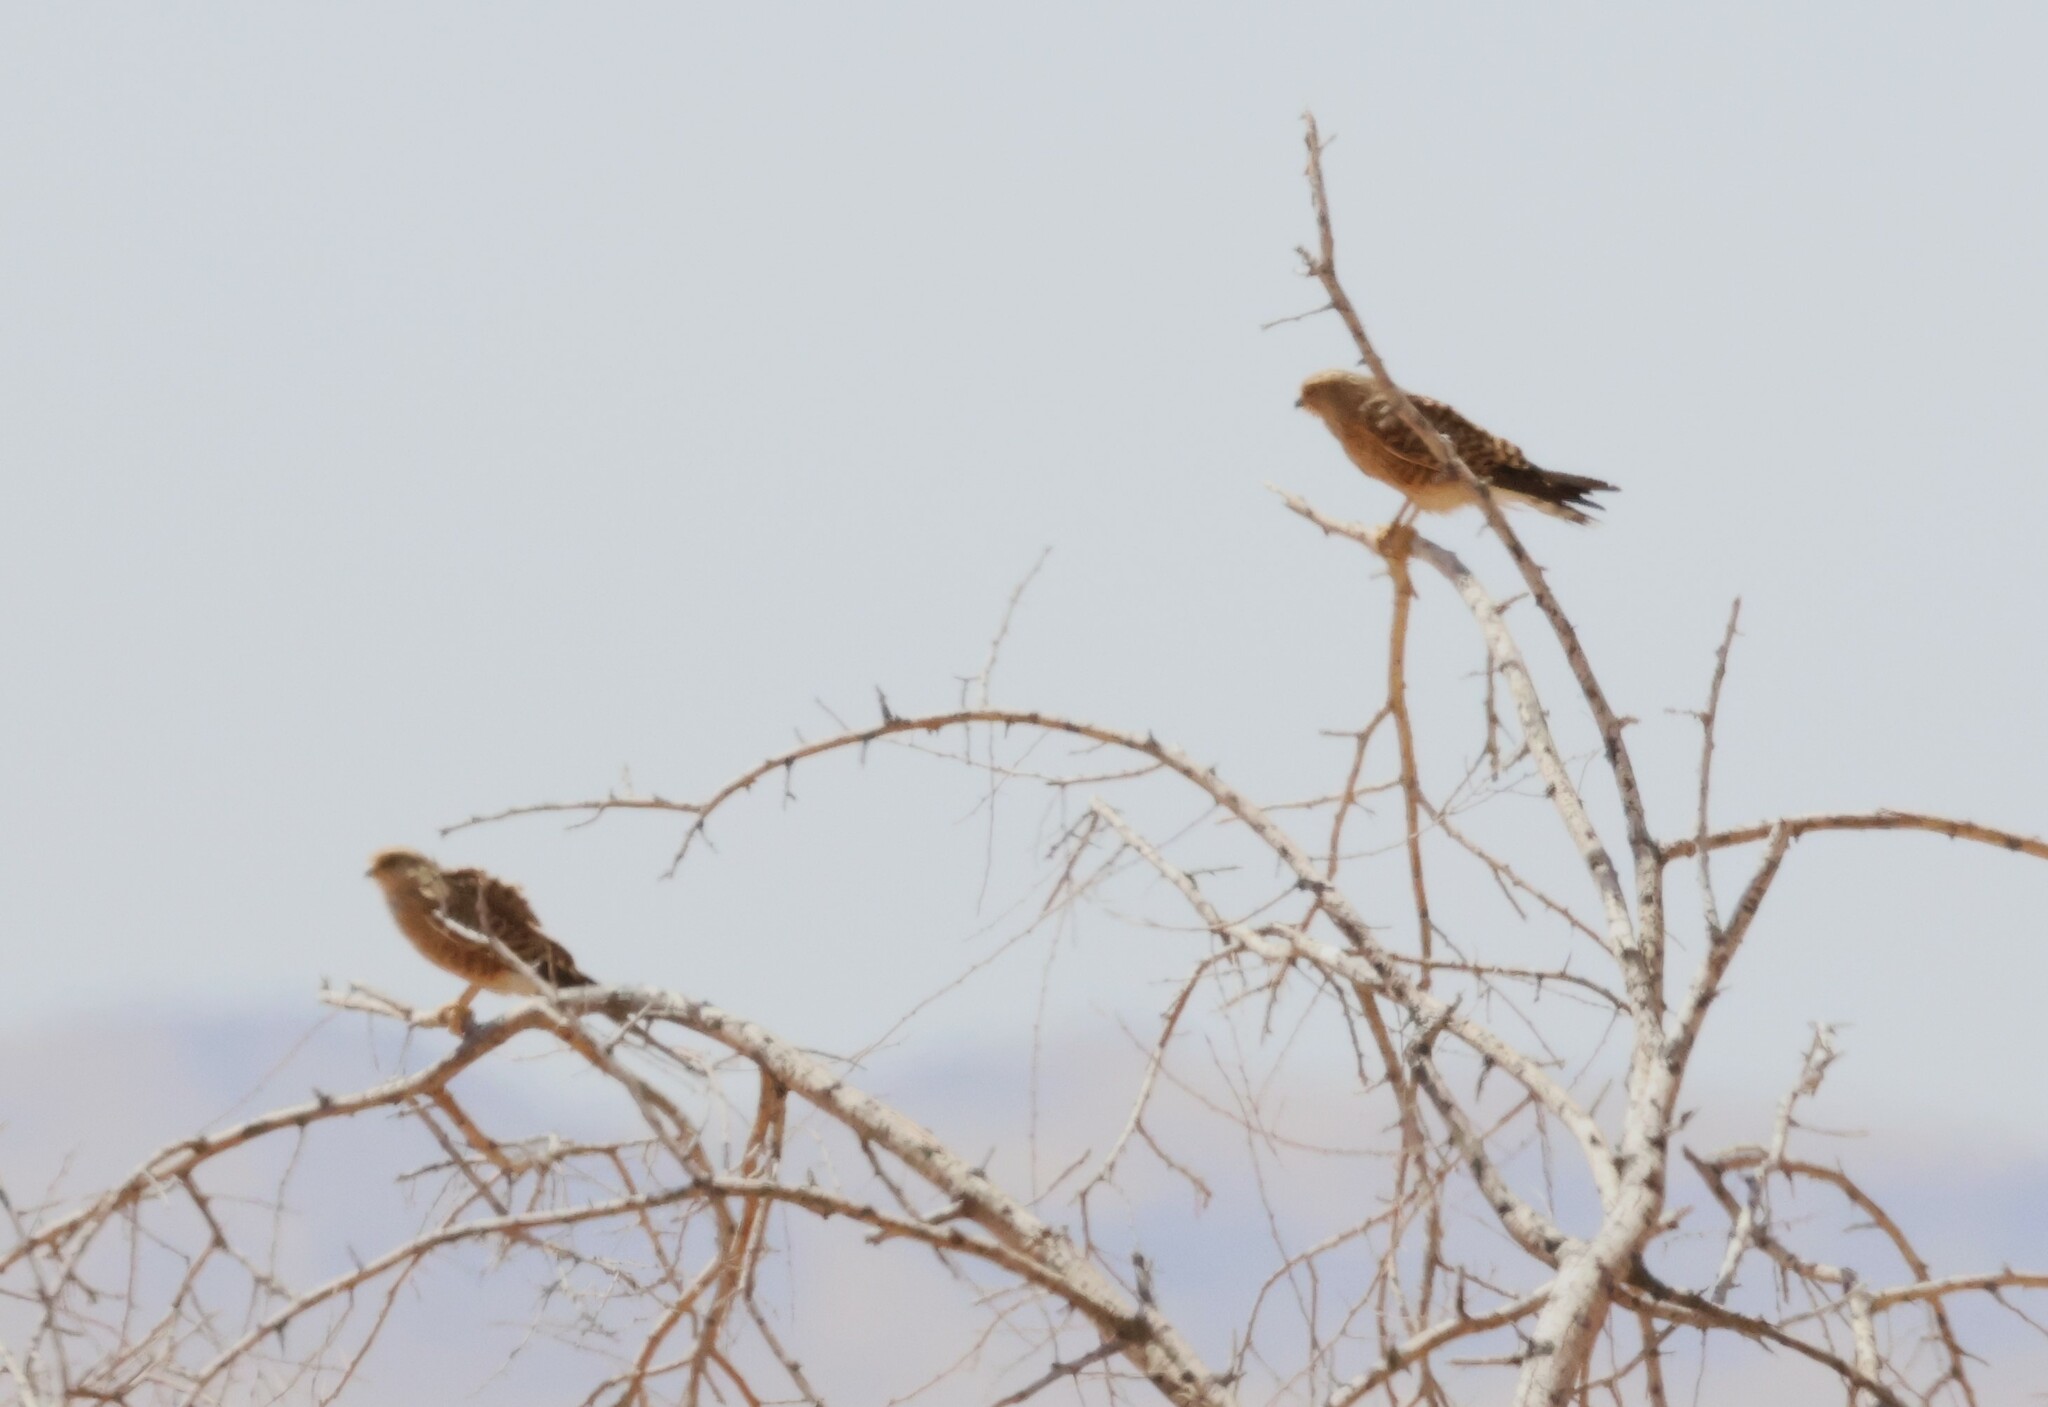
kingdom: Animalia
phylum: Chordata
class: Aves
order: Falconiformes
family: Falconidae
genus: Falco
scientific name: Falco rupicoloides
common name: Greater kestrel
